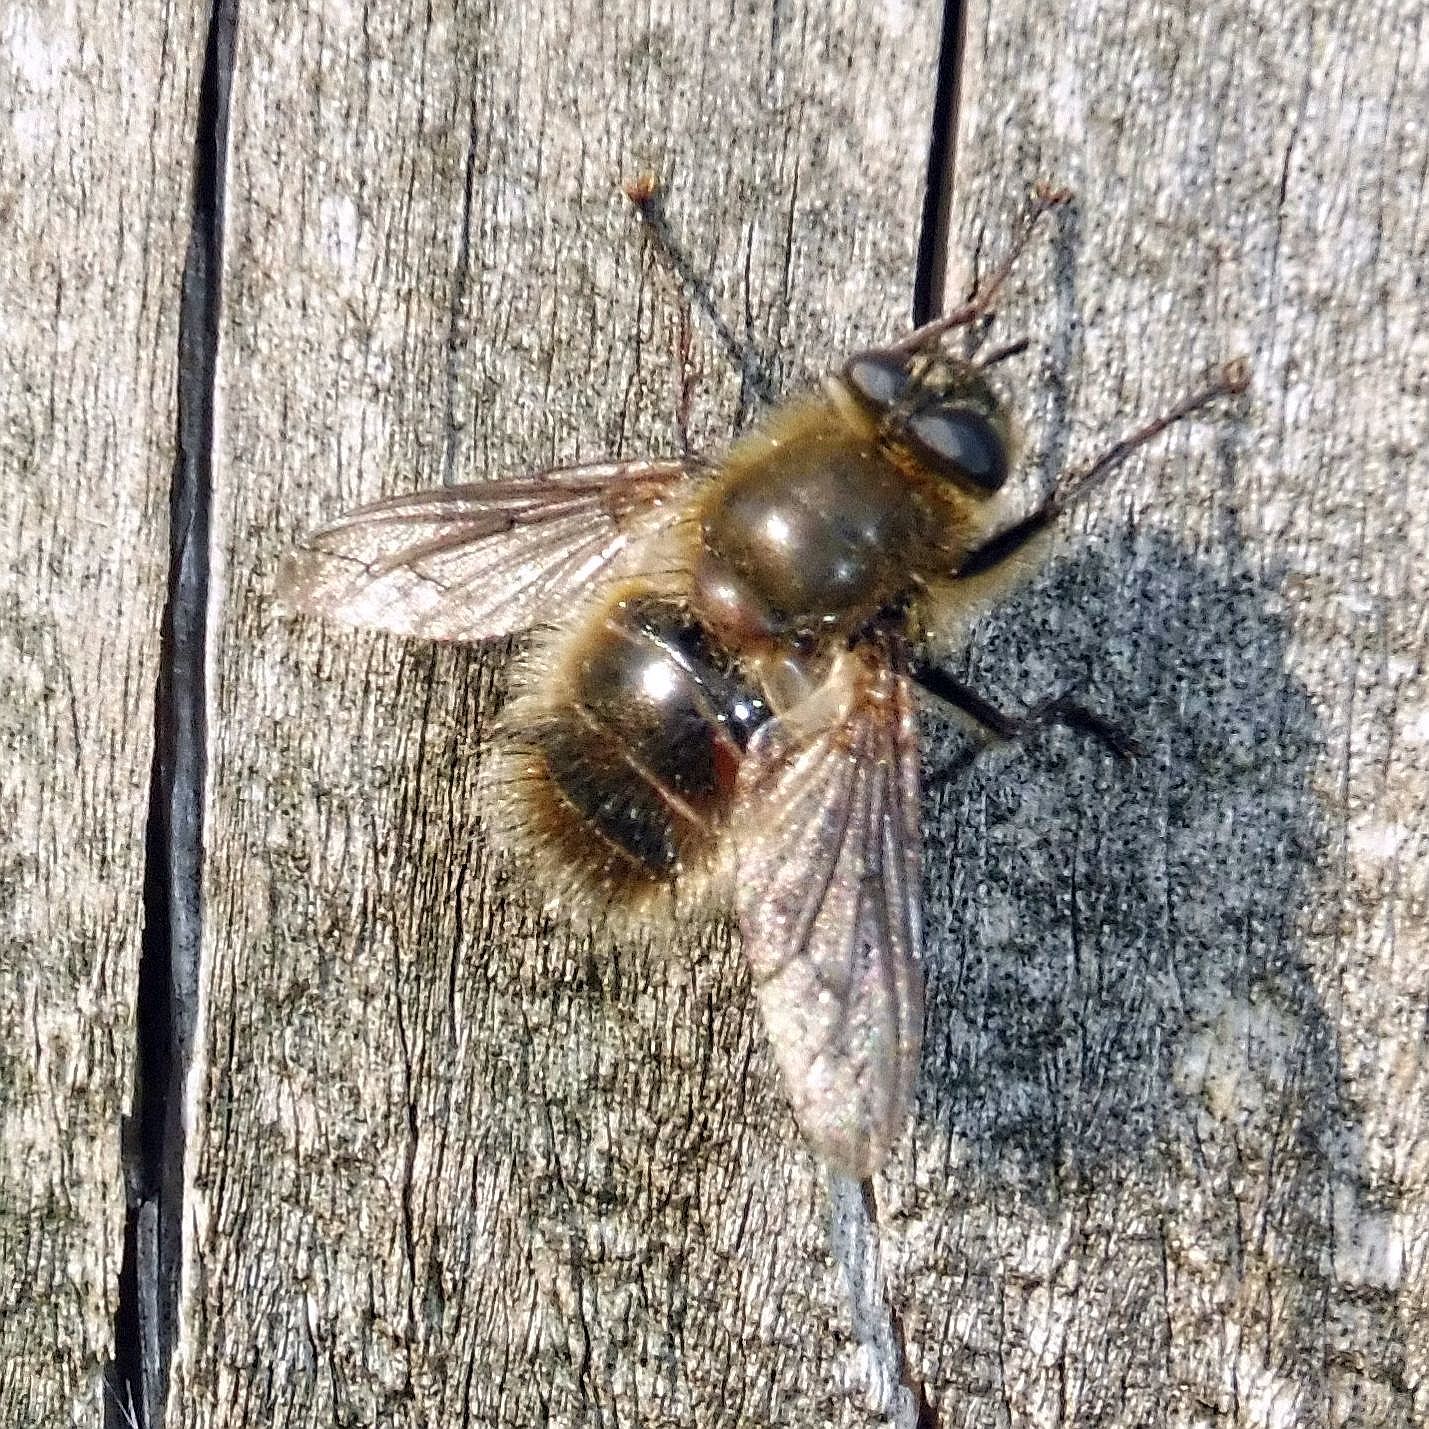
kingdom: Animalia
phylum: Arthropoda
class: Insecta
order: Diptera
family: Tachinidae
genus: Tachina
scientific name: Tachina ursina
